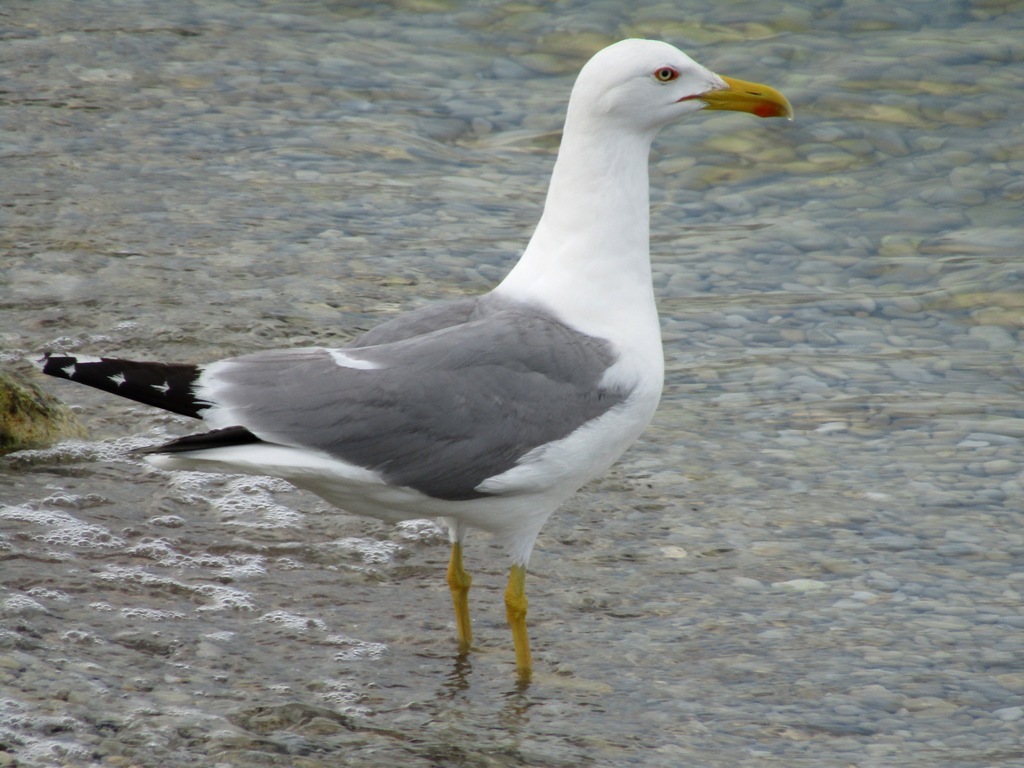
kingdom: Animalia
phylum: Chordata
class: Aves
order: Charadriiformes
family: Laridae
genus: Larus
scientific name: Larus michahellis
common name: Yellow-legged gull
